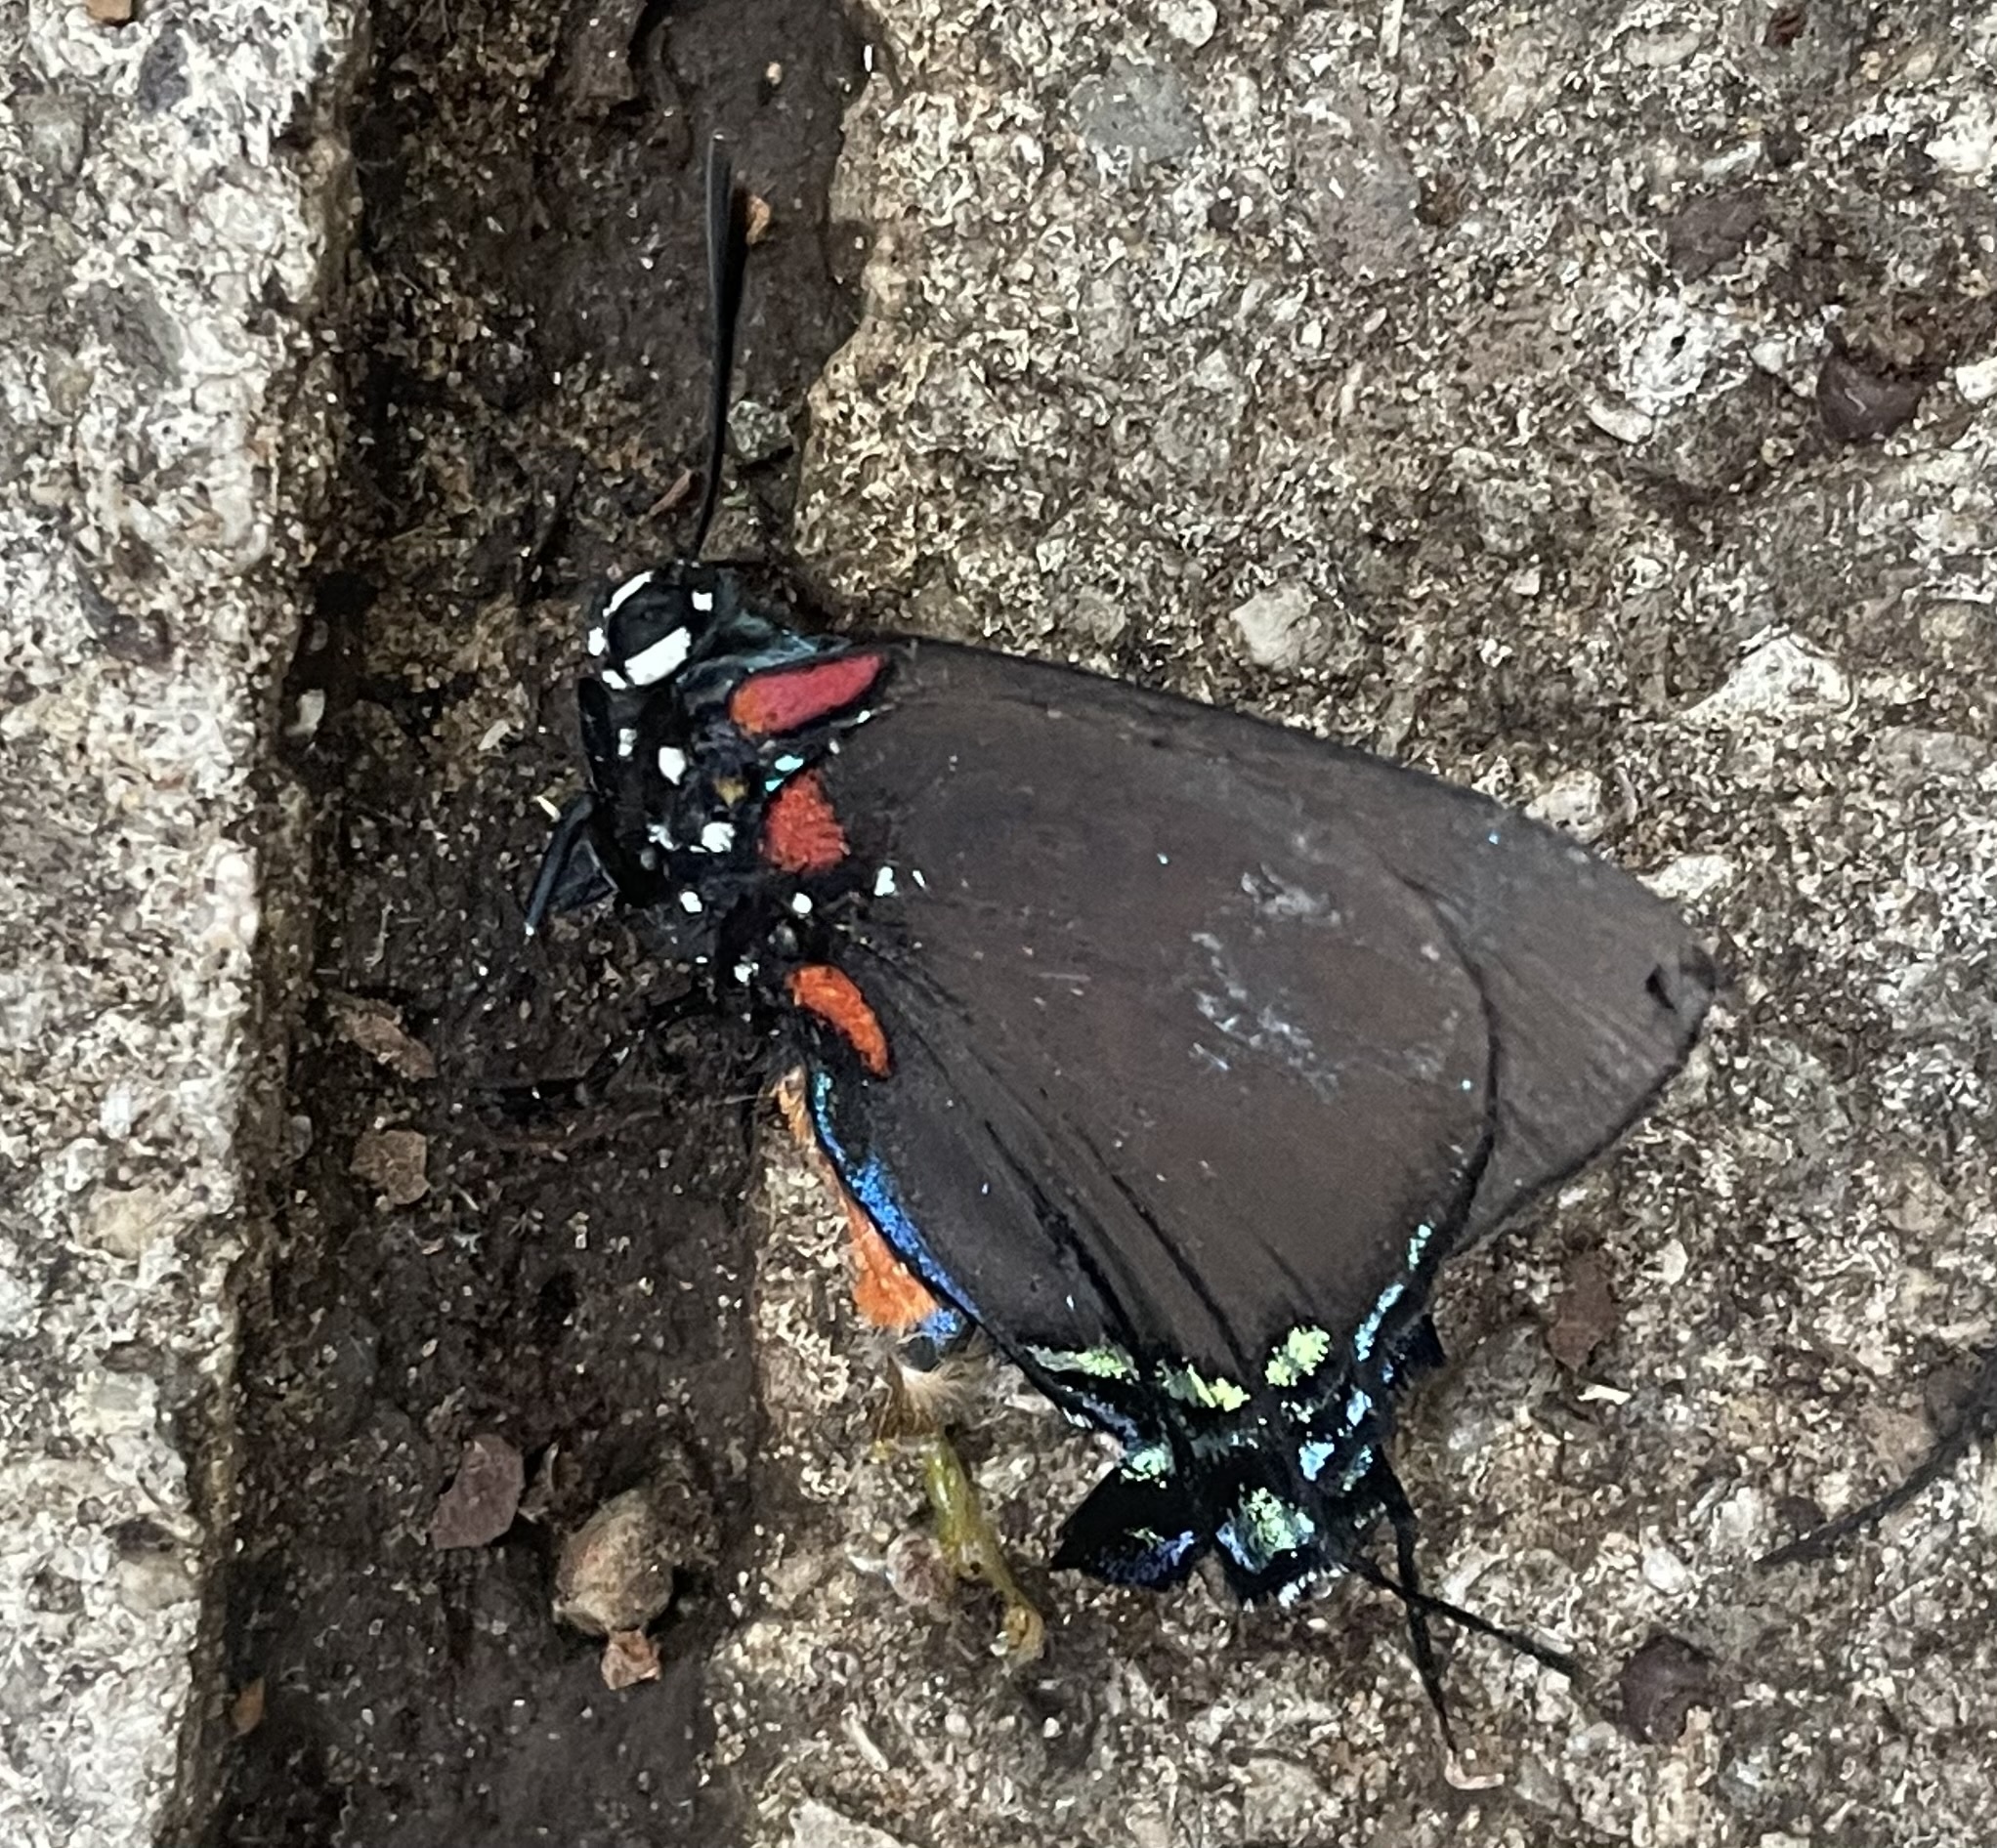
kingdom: Animalia
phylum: Arthropoda
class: Insecta
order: Lepidoptera
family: Lycaenidae
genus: Atlides
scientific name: Atlides halesus
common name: Great purple hairstreak
